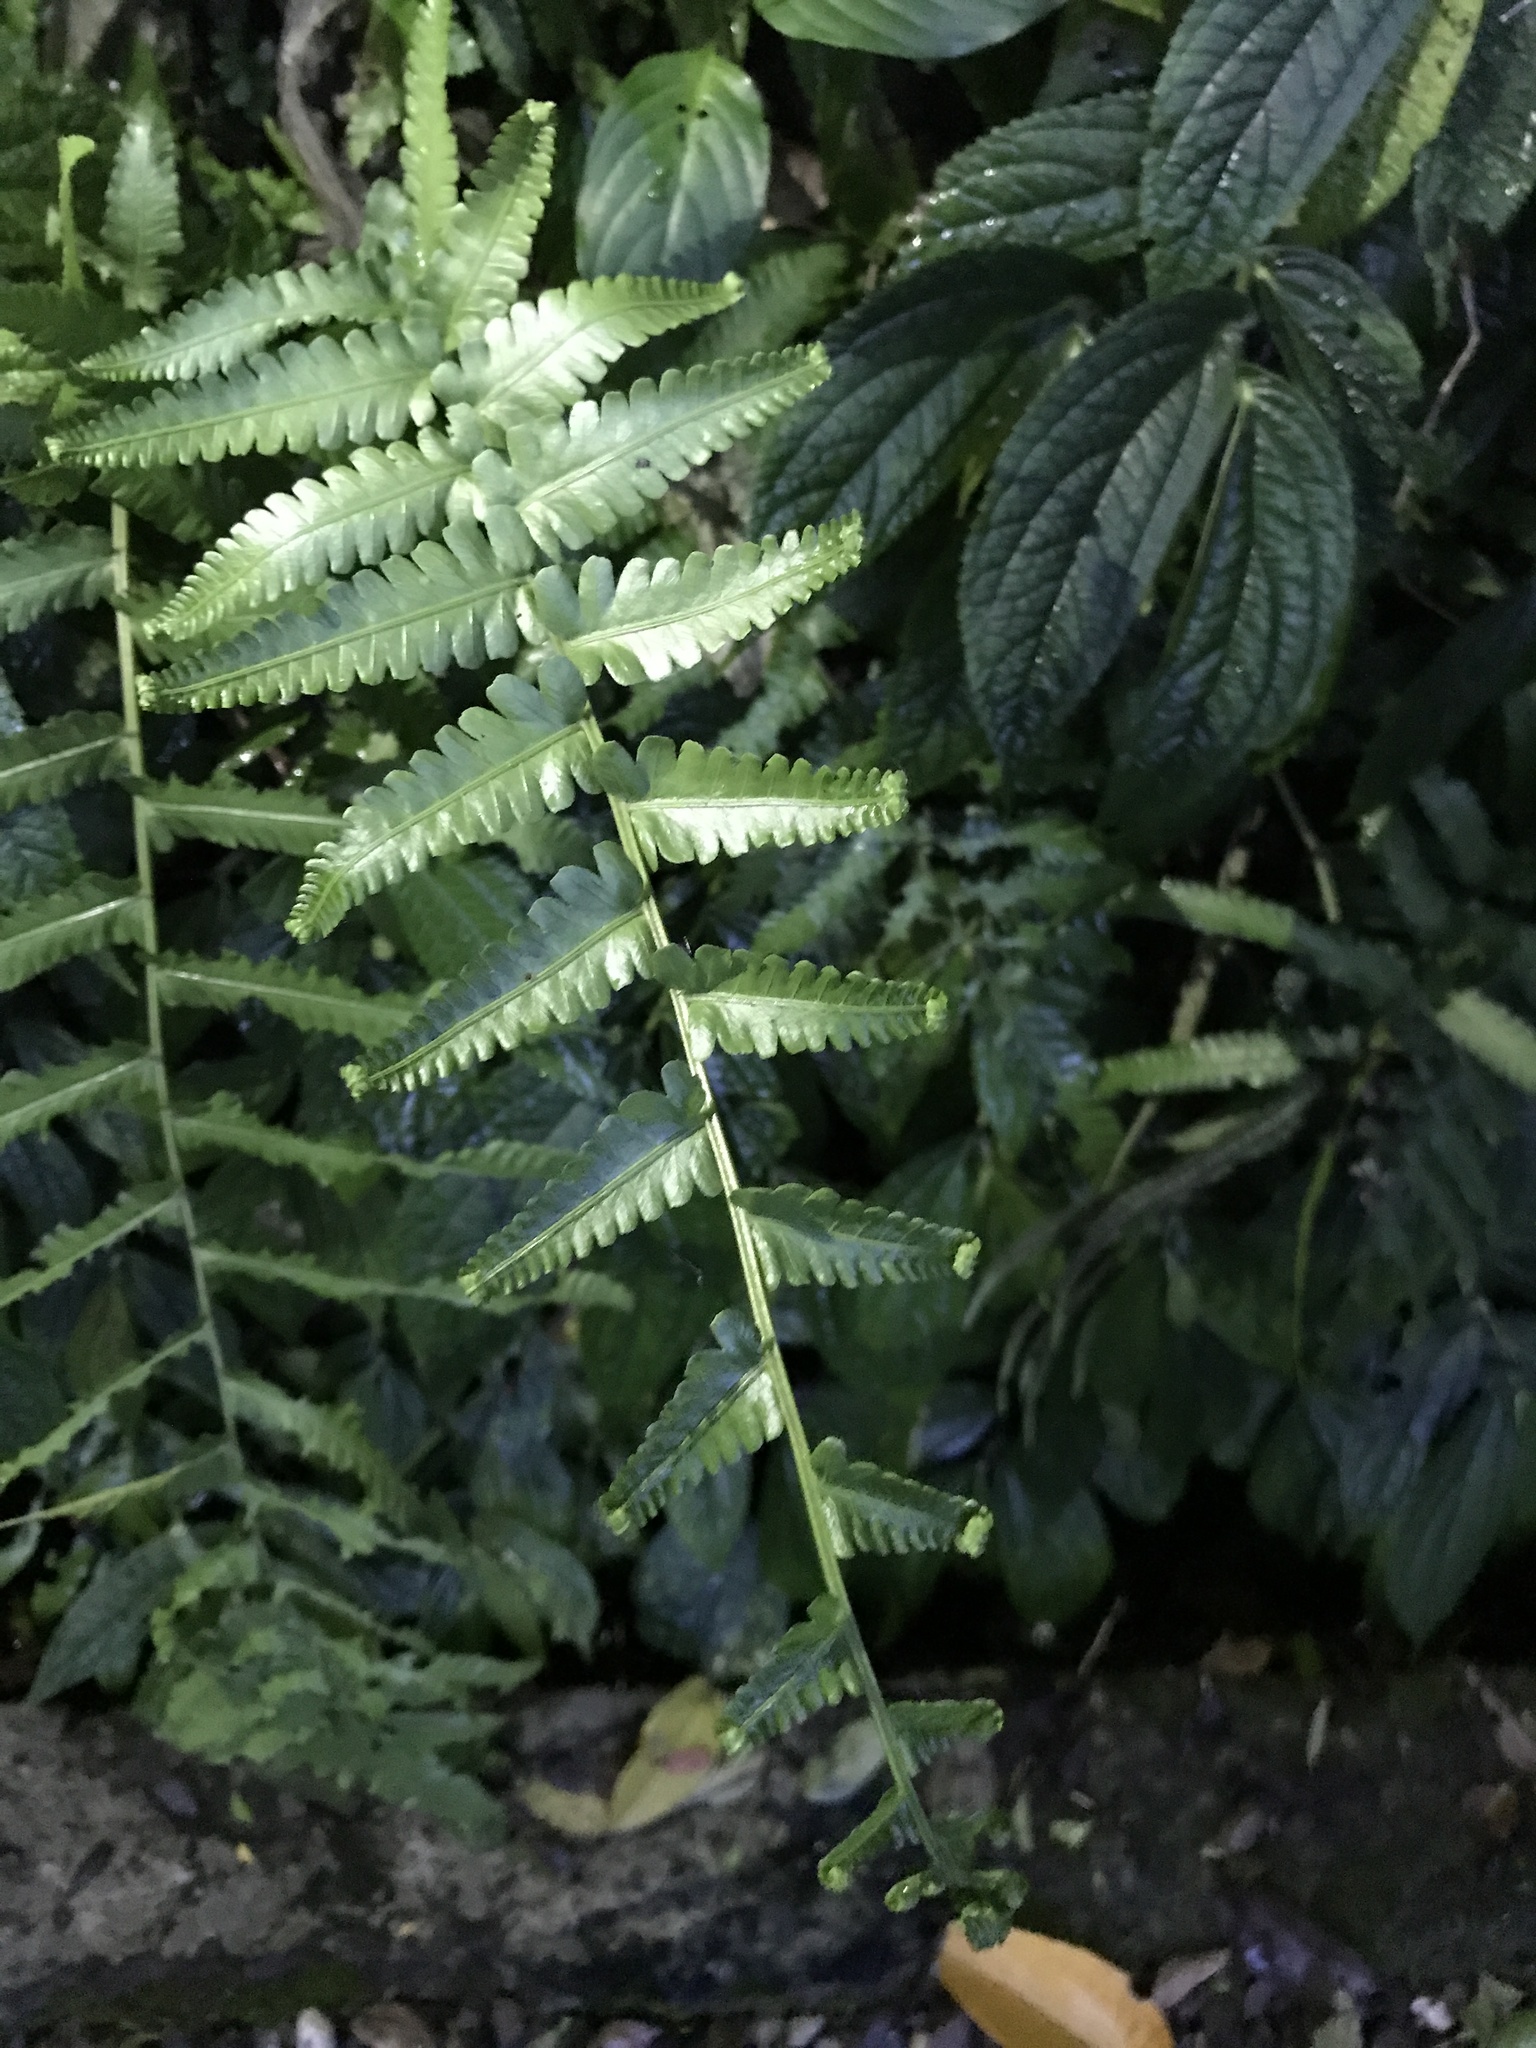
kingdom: Plantae
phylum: Tracheophyta
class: Polypodiopsida
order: Polypodiales
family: Thelypteridaceae
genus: Reholttumia
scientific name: Reholttumia truncata
